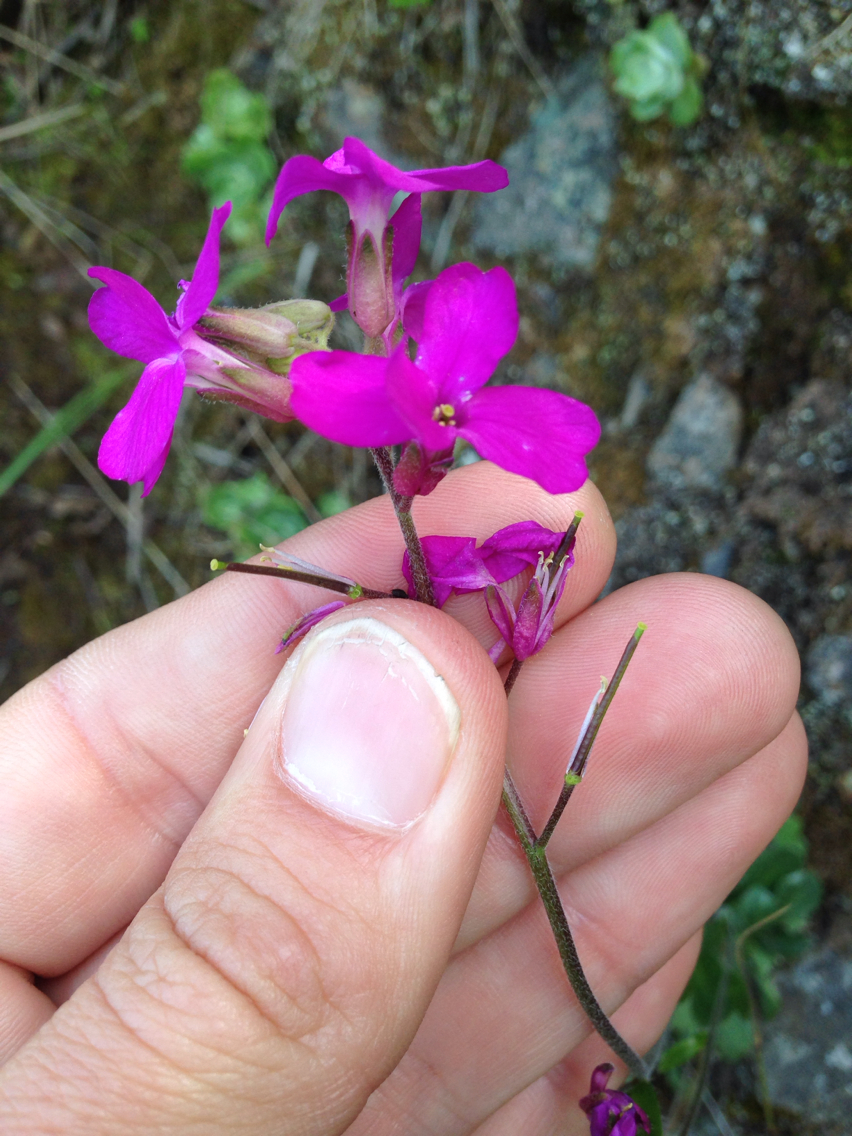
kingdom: Plantae
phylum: Tracheophyta
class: Magnoliopsida
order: Brassicales
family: Brassicaceae
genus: Arabis
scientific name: Arabis blepharophylla
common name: Rose rockcress
